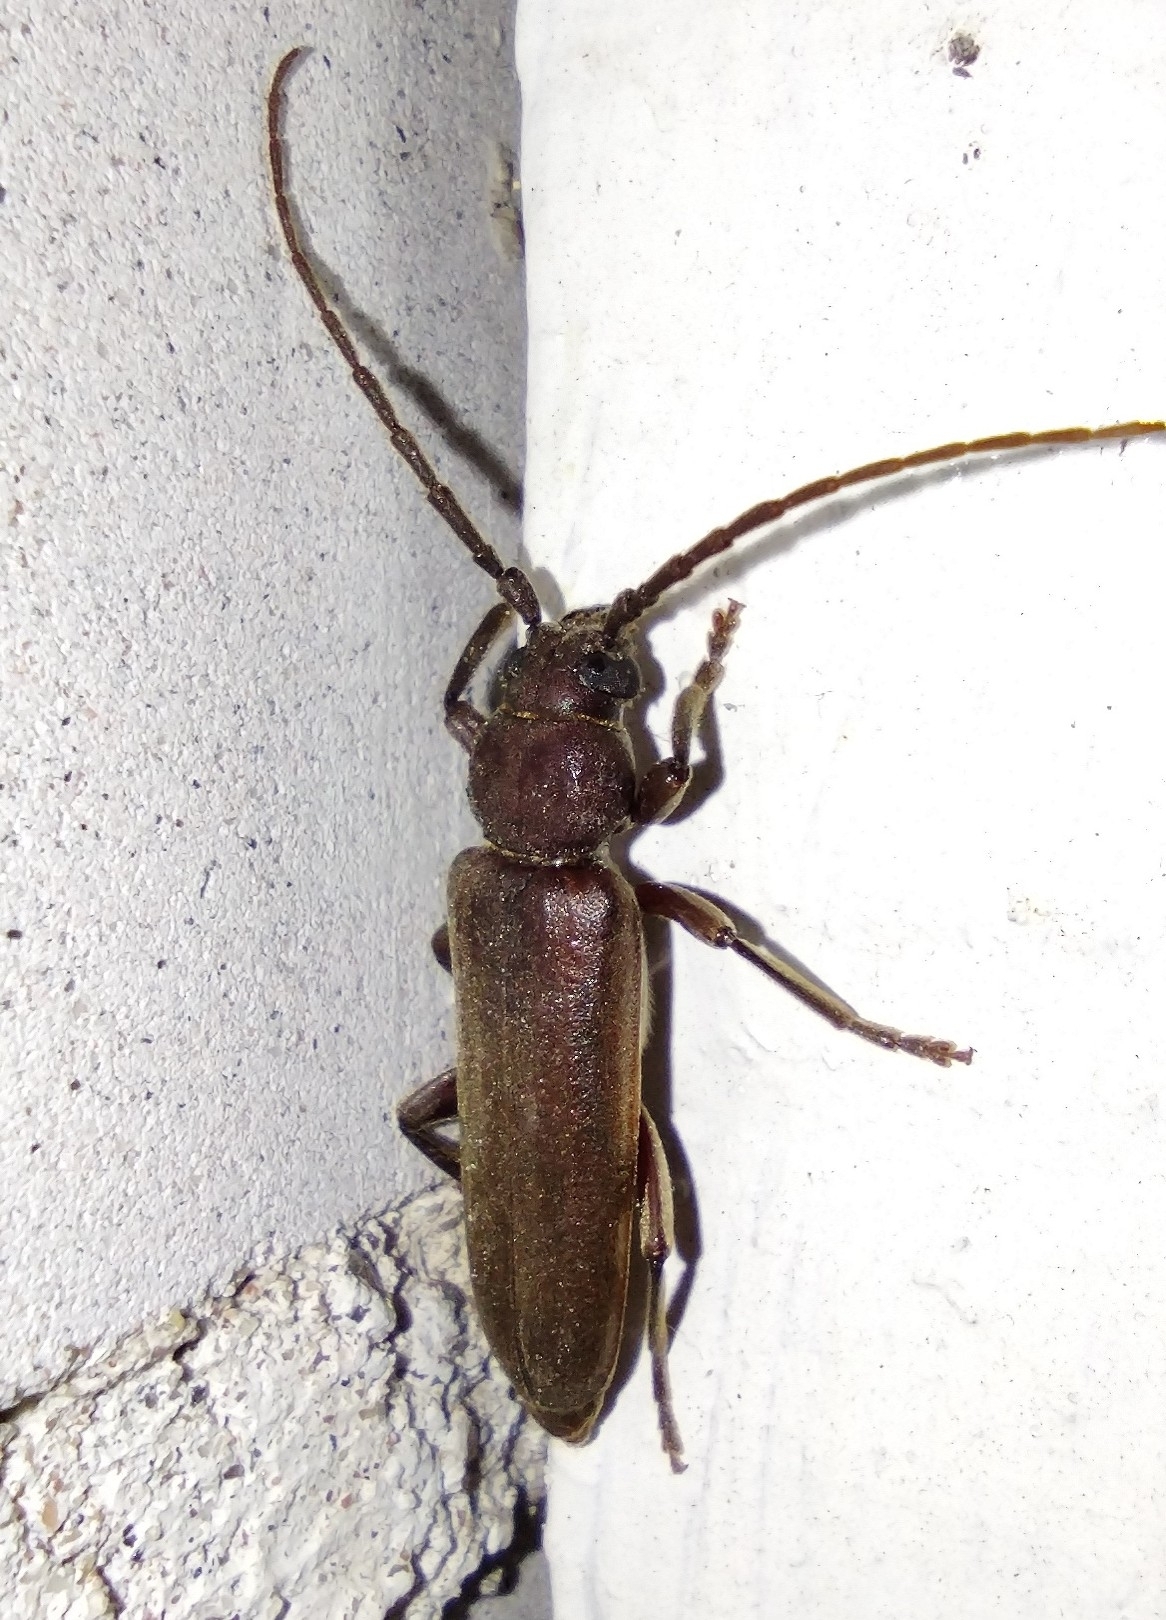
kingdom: Animalia
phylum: Arthropoda
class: Insecta
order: Coleoptera
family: Cerambycidae
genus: Arhopalus
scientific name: Arhopalus rusticus
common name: Rust pine borer
